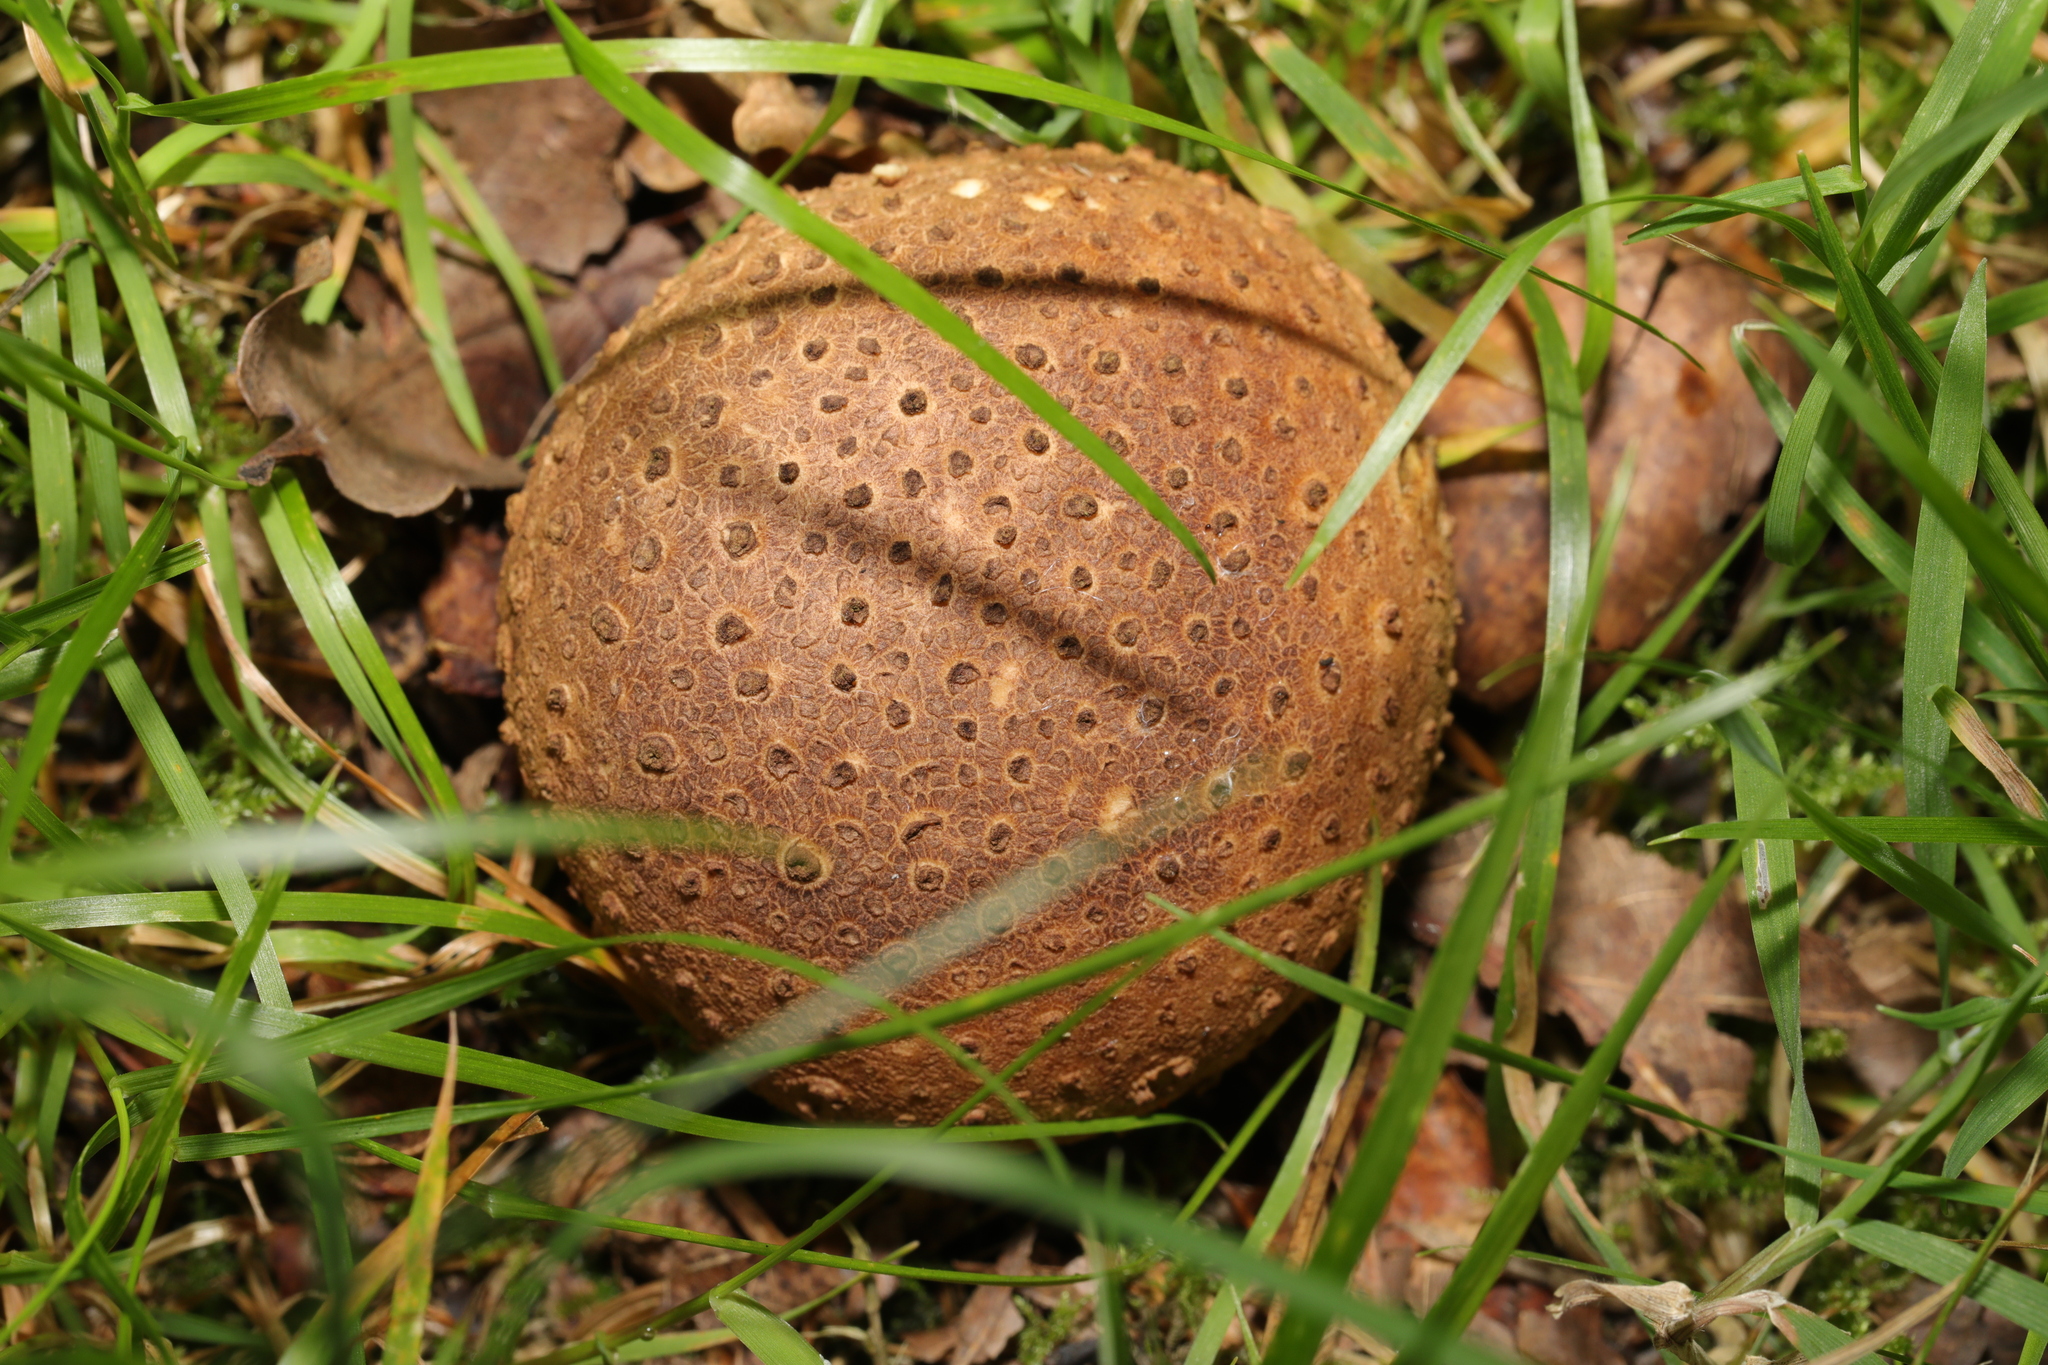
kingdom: Fungi
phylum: Basidiomycota
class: Agaricomycetes
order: Boletales
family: Sclerodermataceae
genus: Scleroderma
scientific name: Scleroderma citrinum
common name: Common earthball
